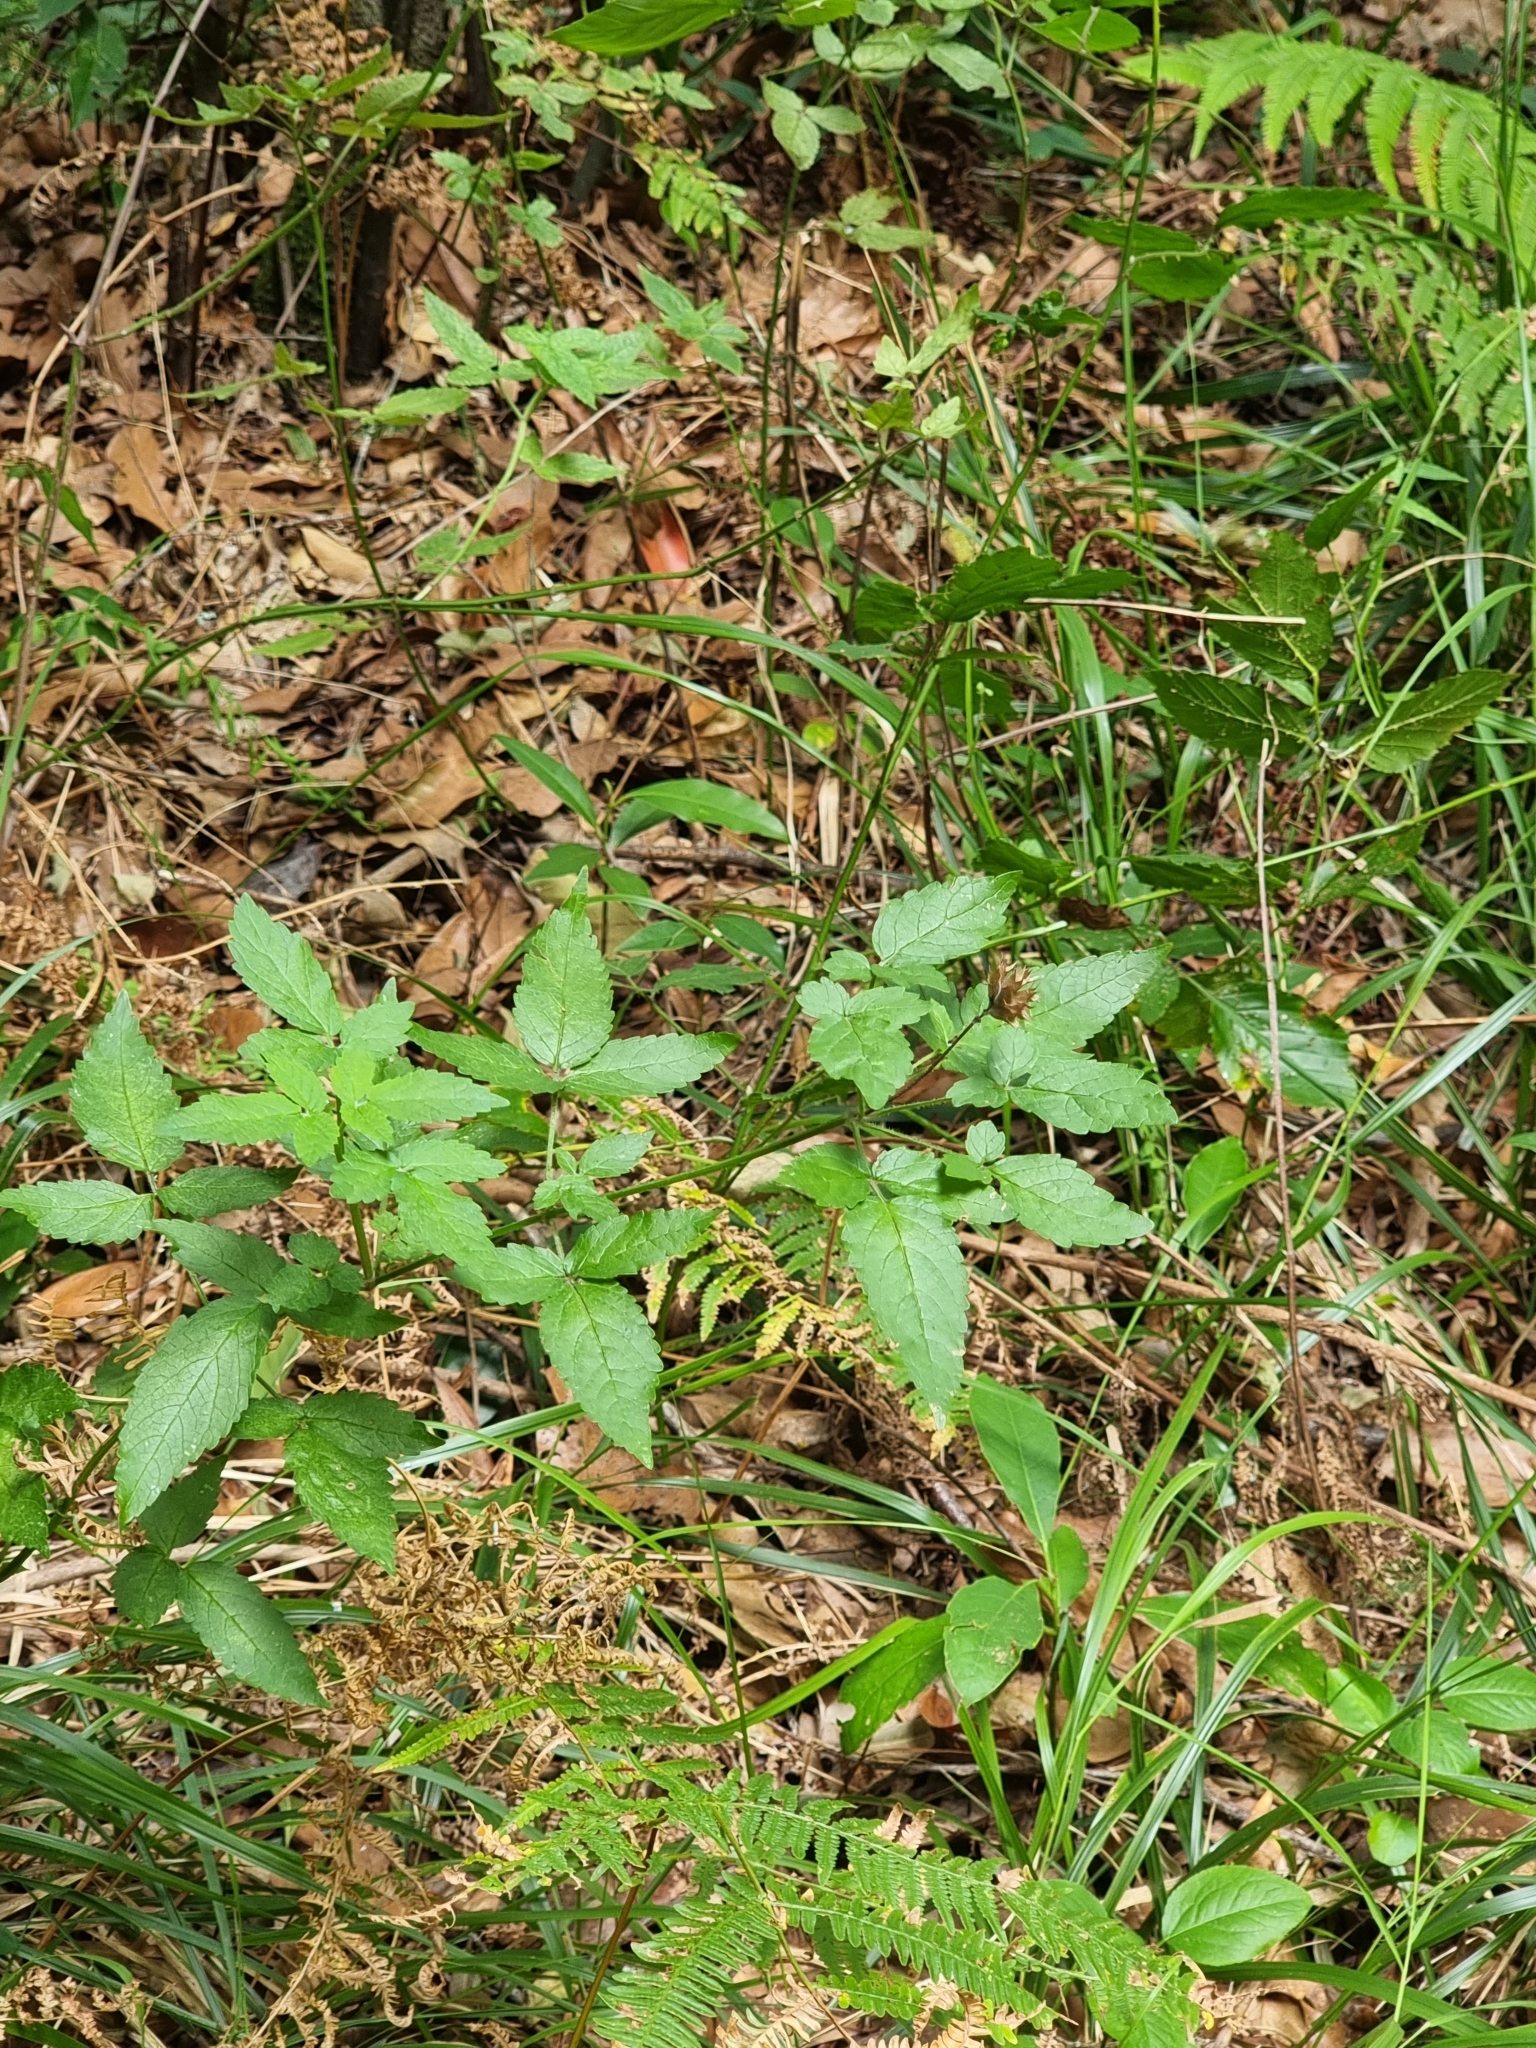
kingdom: Plantae
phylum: Tracheophyta
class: Magnoliopsida
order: Lamiales
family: Lamiaceae
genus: Cedronella
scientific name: Cedronella canariensis
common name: Canary islands balm
